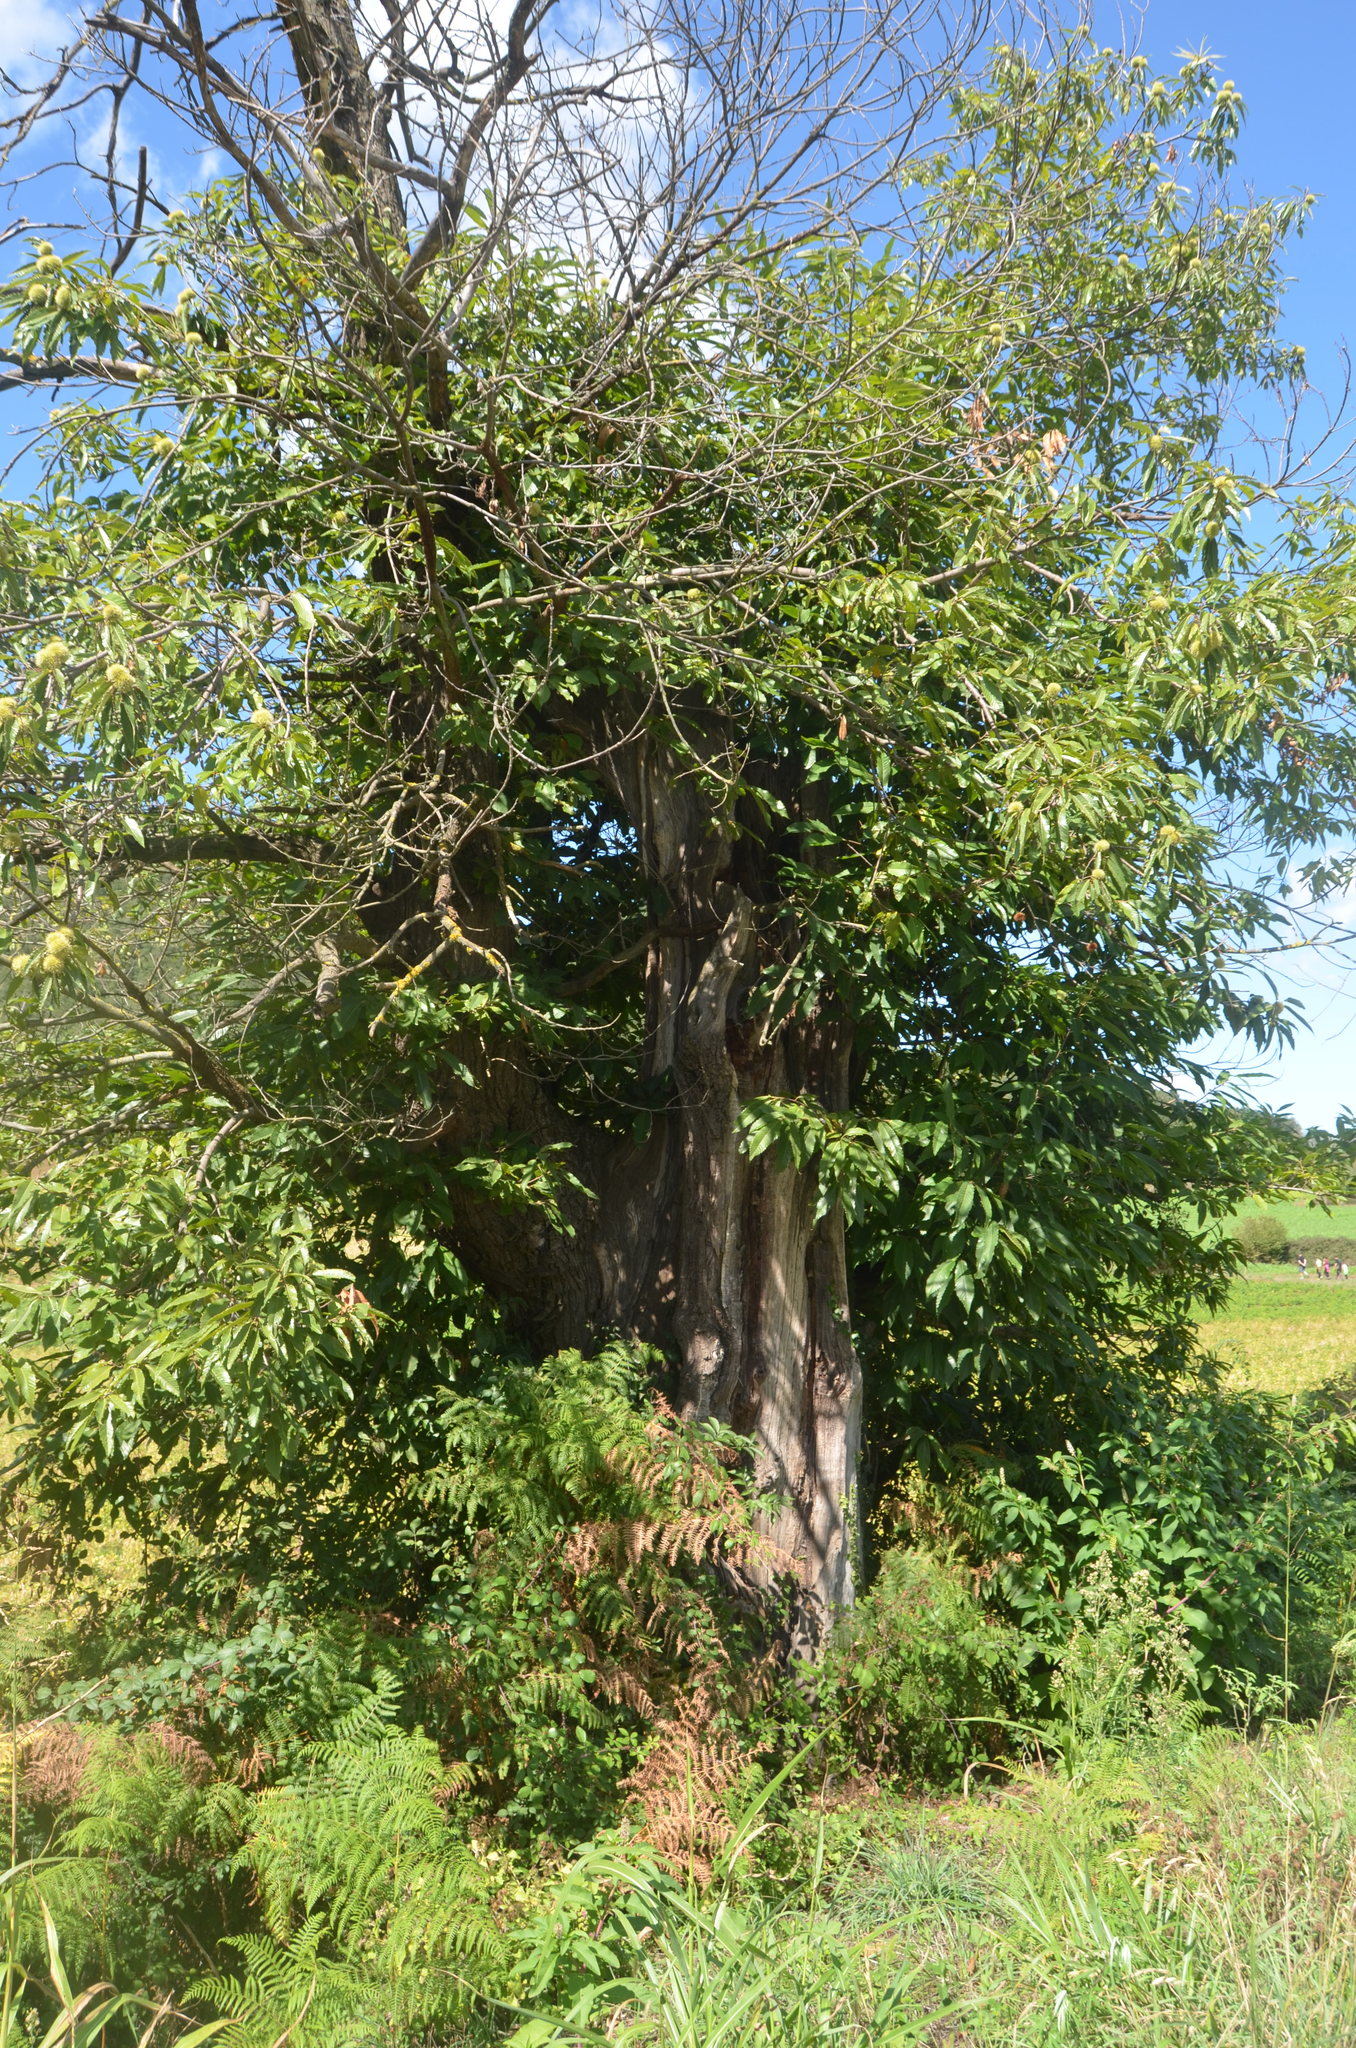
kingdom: Plantae
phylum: Tracheophyta
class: Magnoliopsida
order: Fagales
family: Fagaceae
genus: Castanea
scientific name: Castanea sativa
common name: Sweet chestnut
